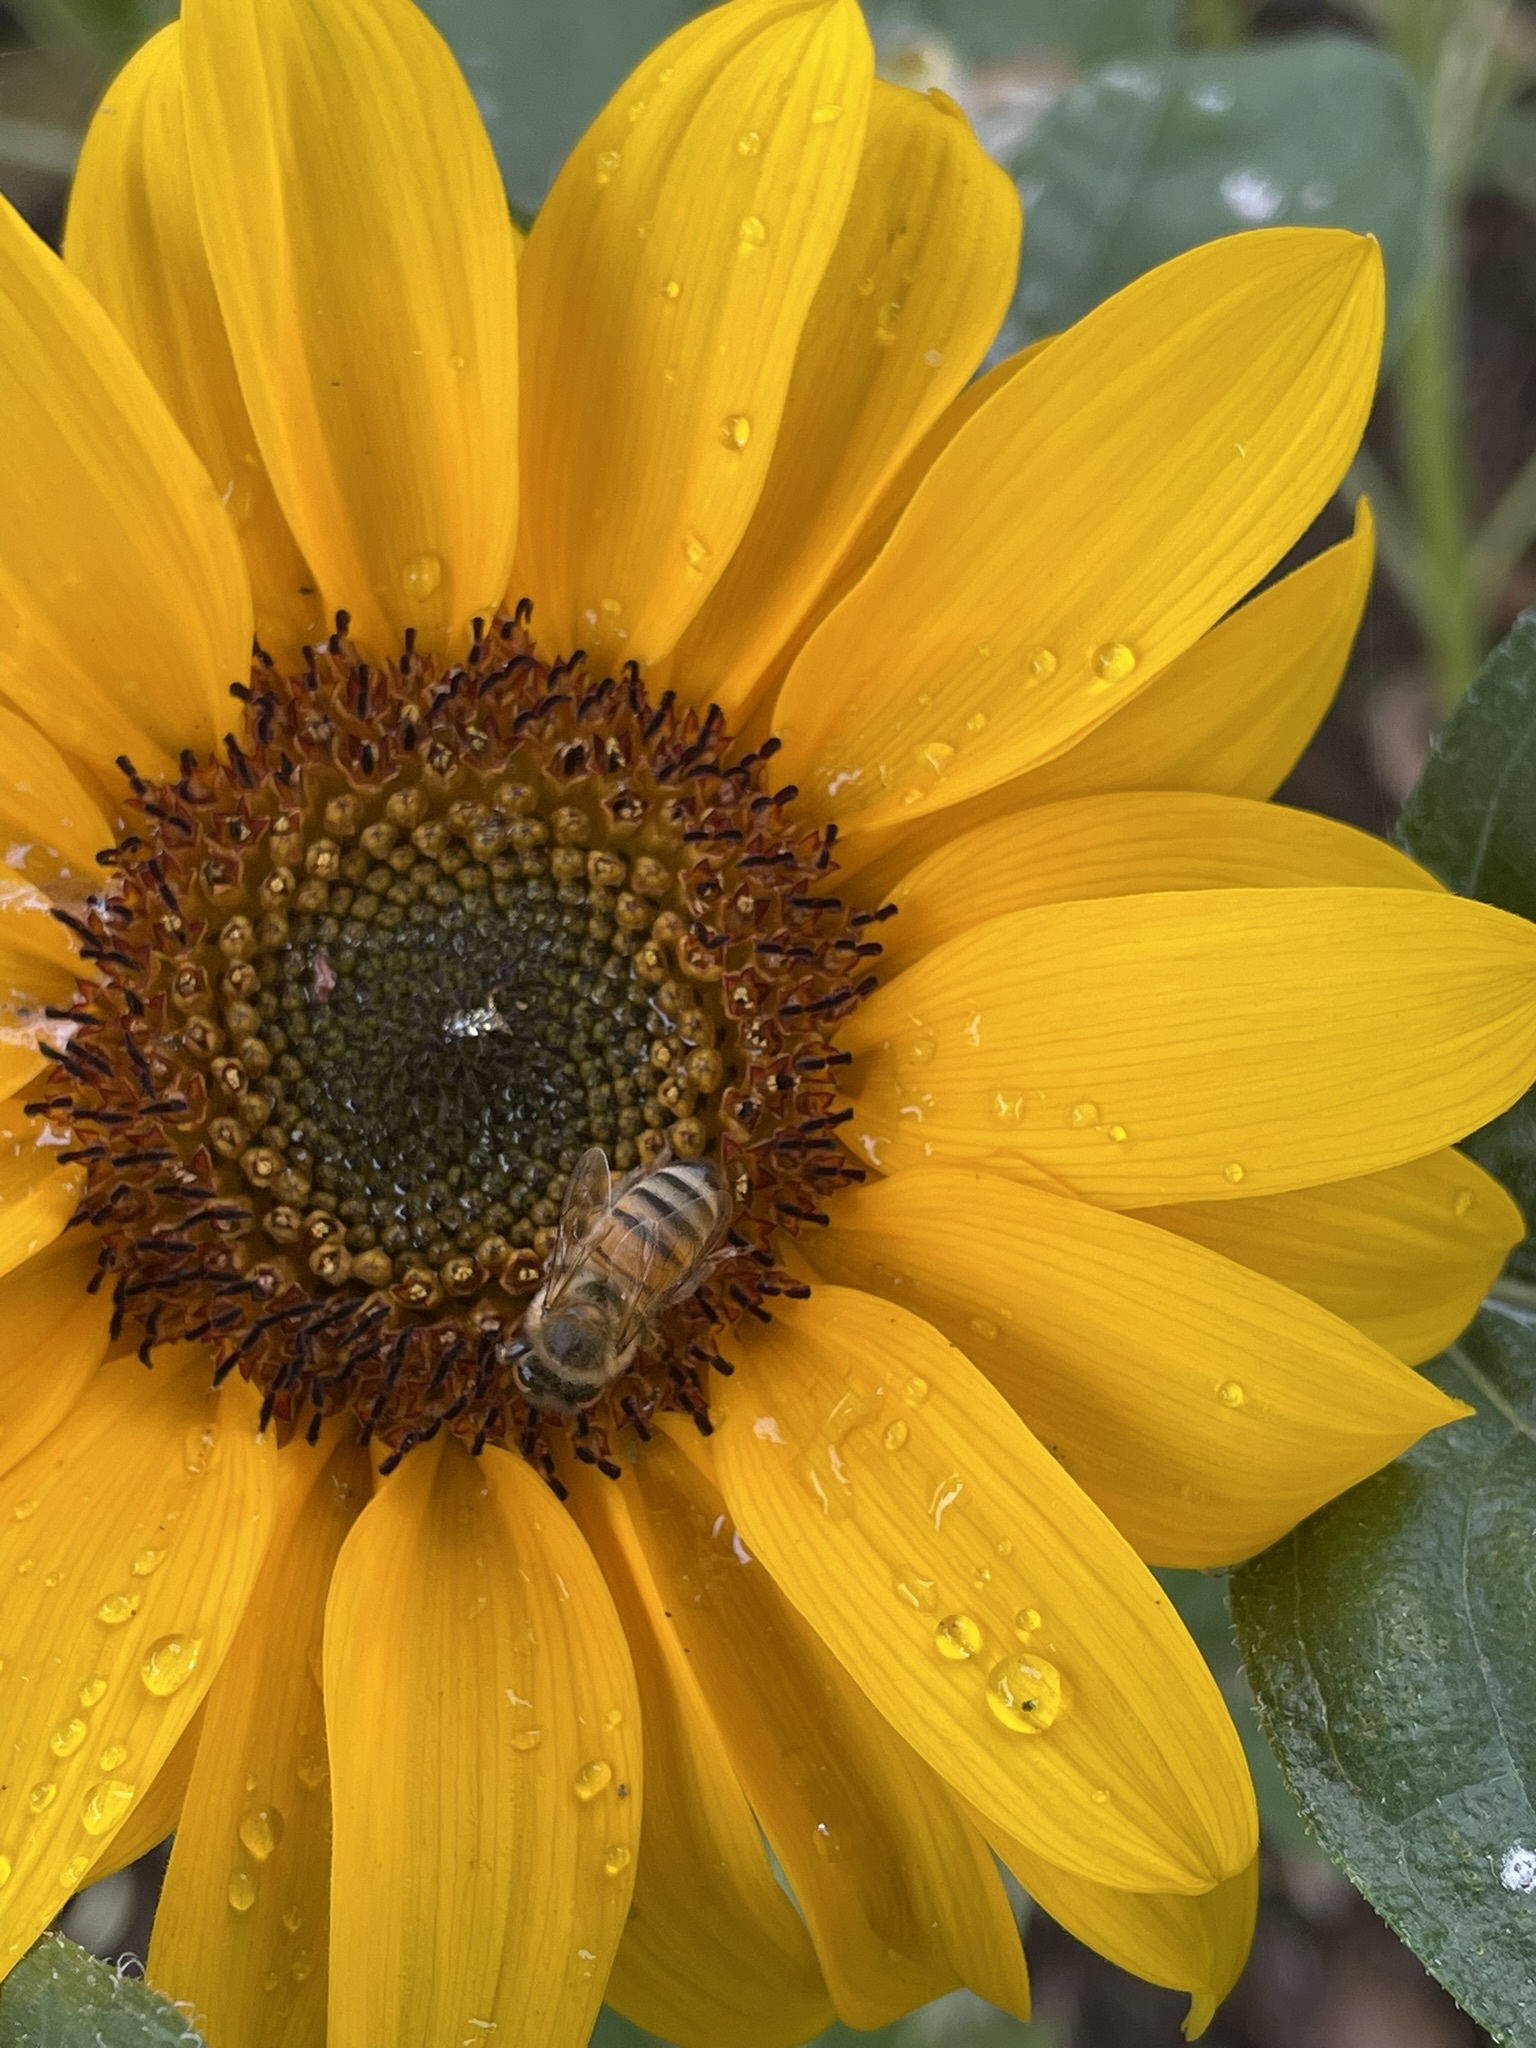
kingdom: Animalia
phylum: Arthropoda
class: Insecta
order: Hymenoptera
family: Apidae
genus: Apis
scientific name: Apis mellifera
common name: Honey bee
